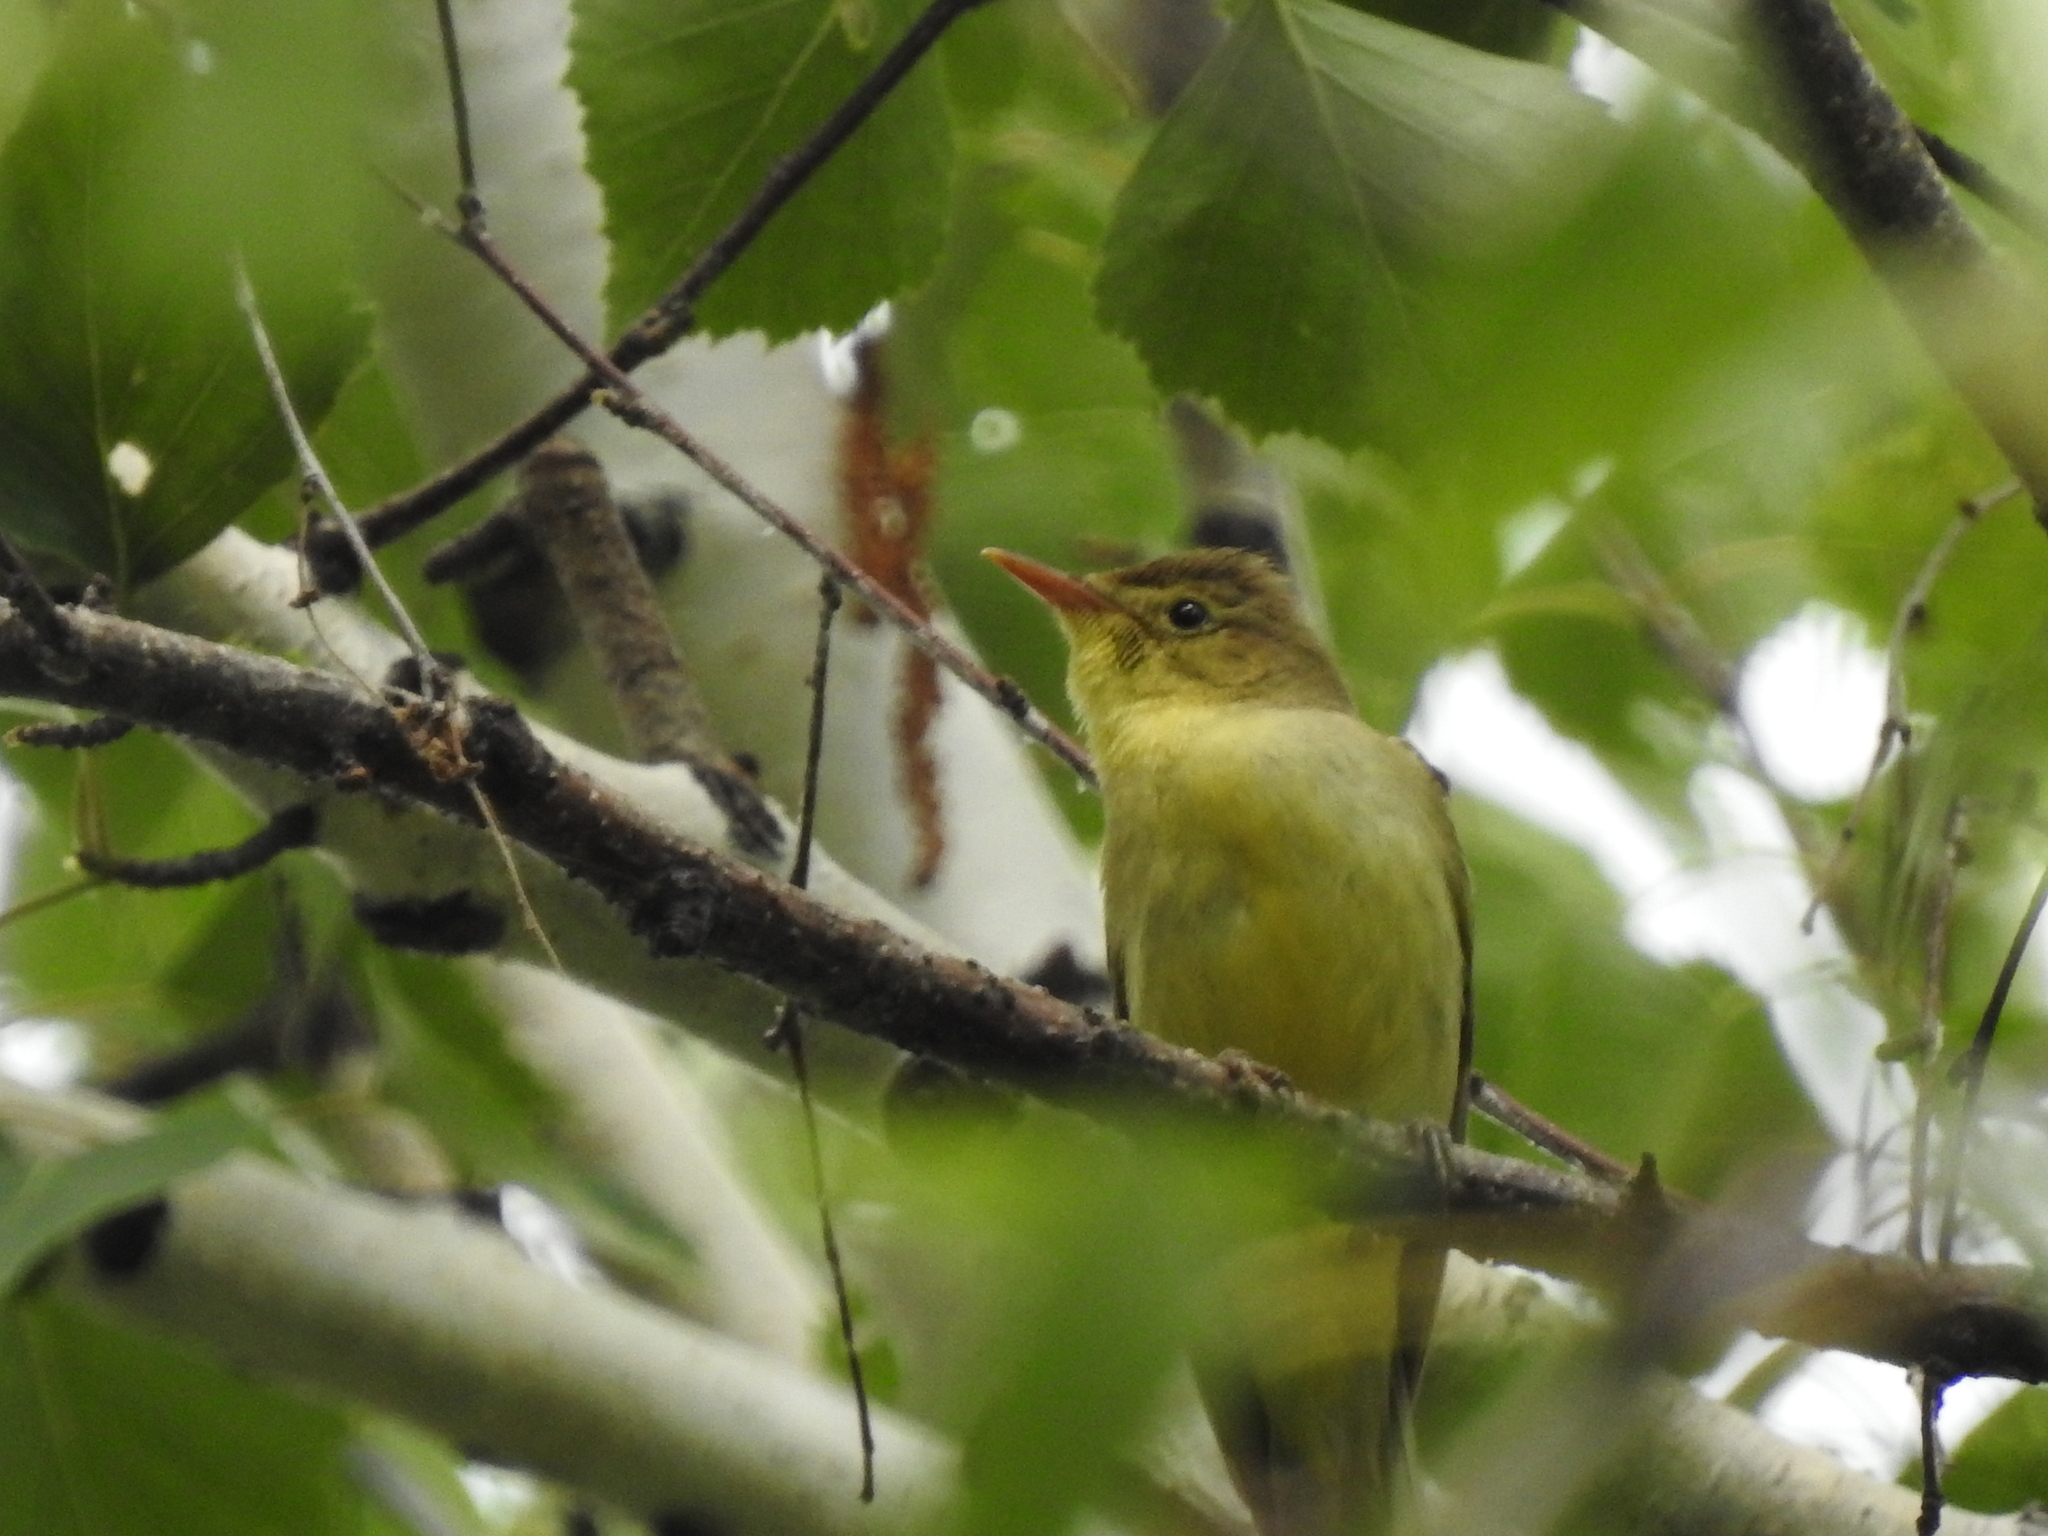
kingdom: Animalia
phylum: Chordata
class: Aves
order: Passeriformes
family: Acrocephalidae
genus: Hippolais
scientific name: Hippolais icterina
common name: Icterine warbler
